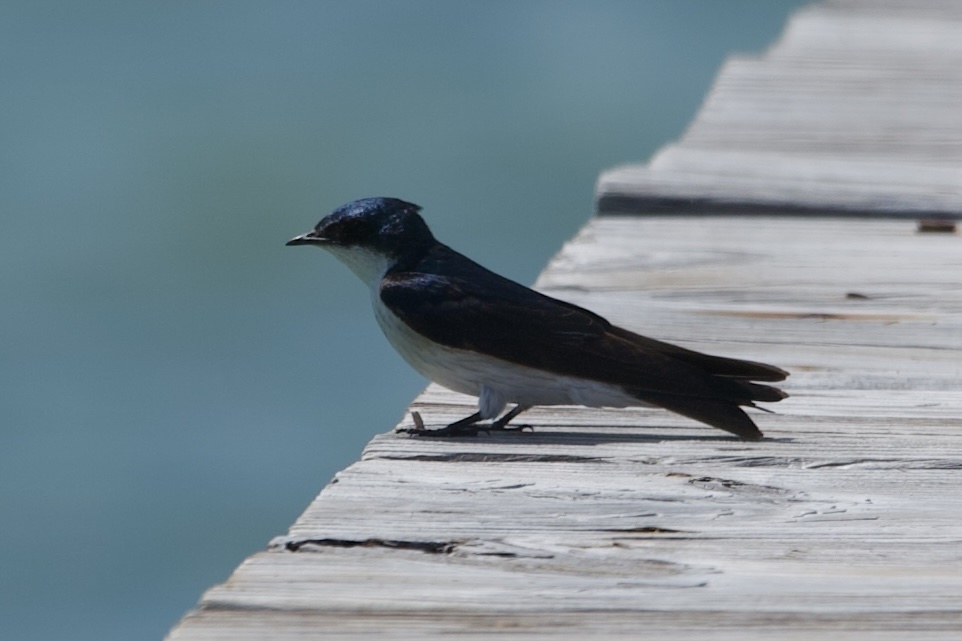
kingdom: Animalia
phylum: Chordata
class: Aves
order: Passeriformes
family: Hirundinidae
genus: Tachycineta
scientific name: Tachycineta albilinea
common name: Mangrove swallow
